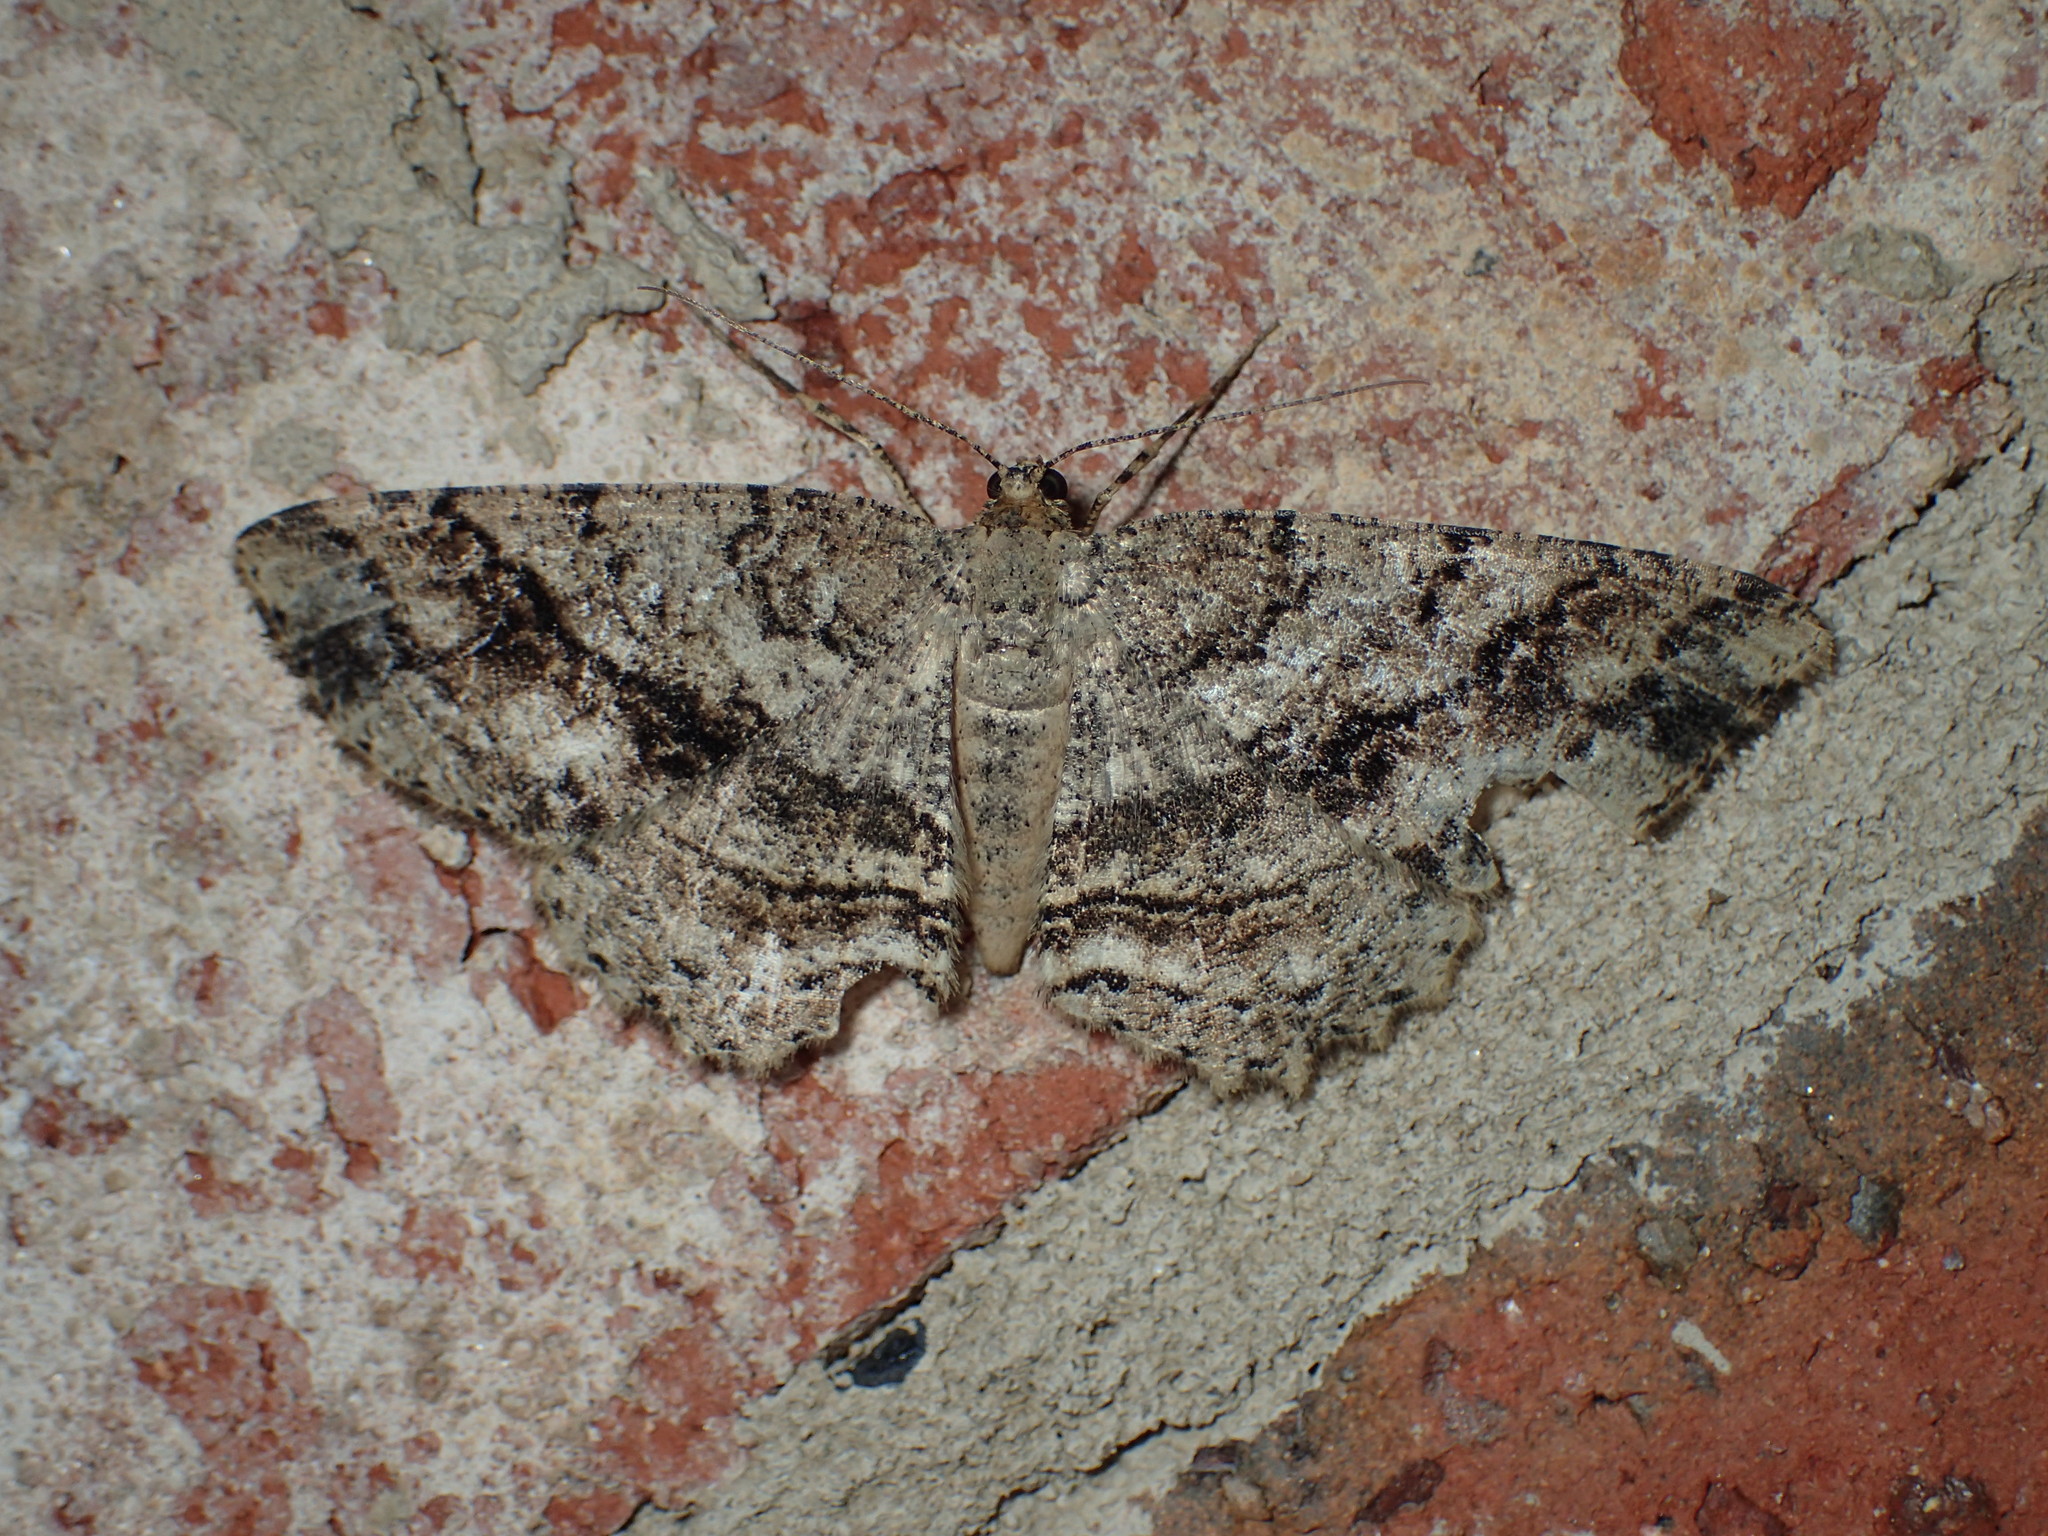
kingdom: Animalia
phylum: Arthropoda
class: Insecta
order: Lepidoptera
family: Geometridae
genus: Melanolophia
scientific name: Melanolophia canadaria
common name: Canadian melanolophia
